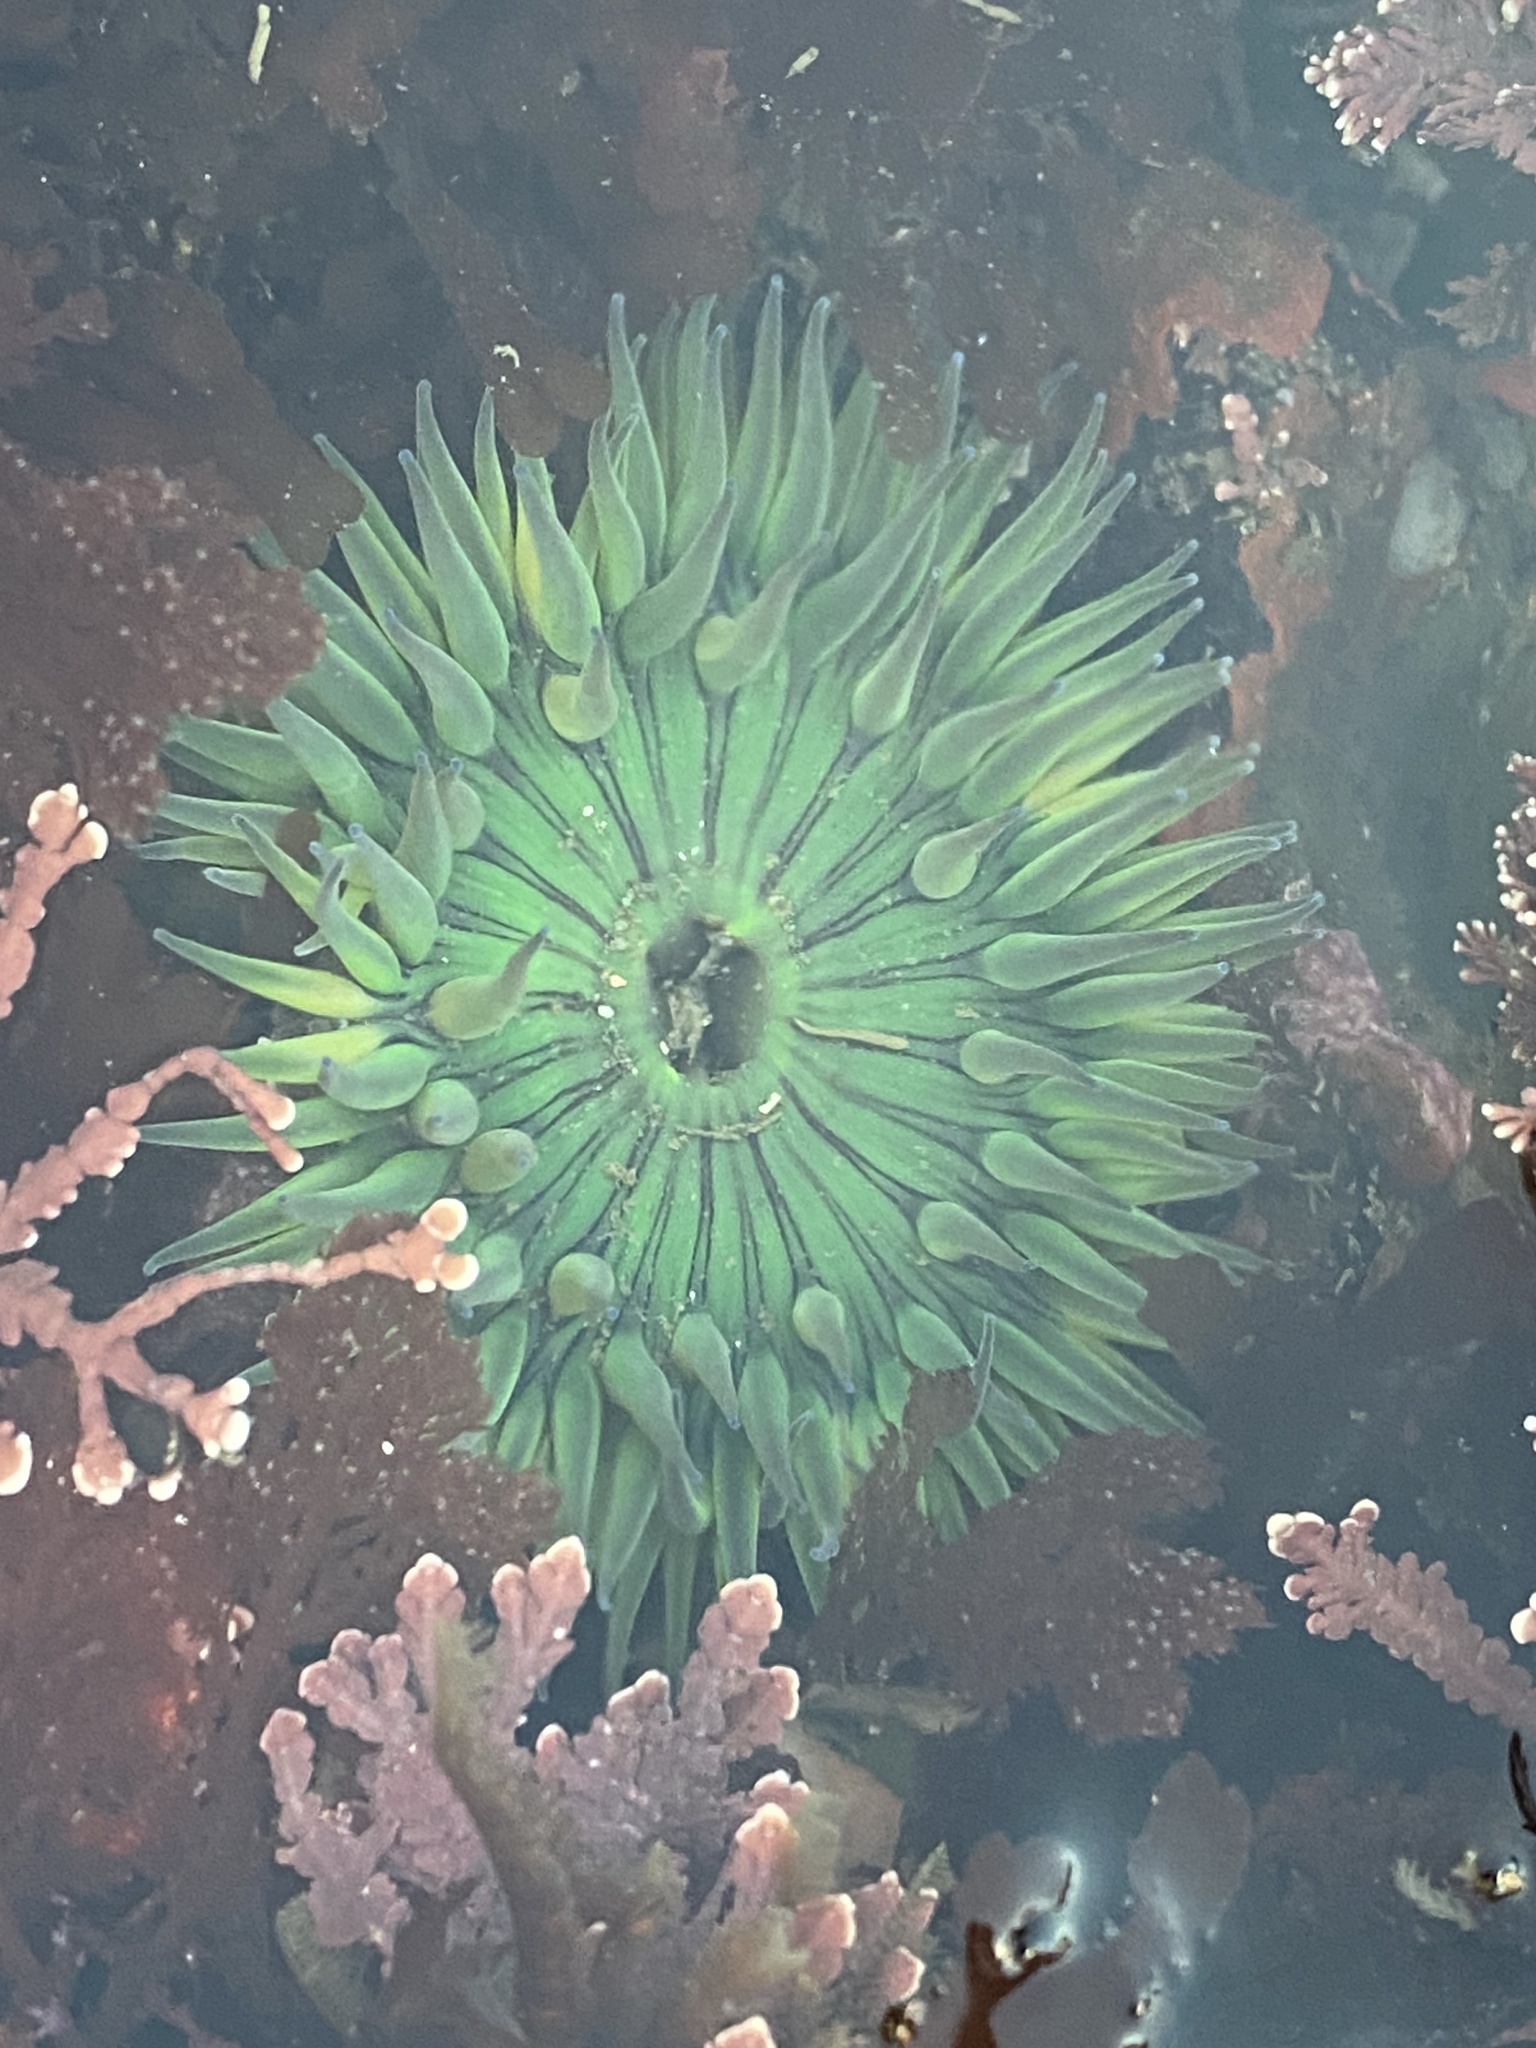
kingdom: Animalia
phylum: Cnidaria
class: Anthozoa
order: Actiniaria
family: Actiniidae
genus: Anthopleura
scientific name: Anthopleura sola
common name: Sun anemone
